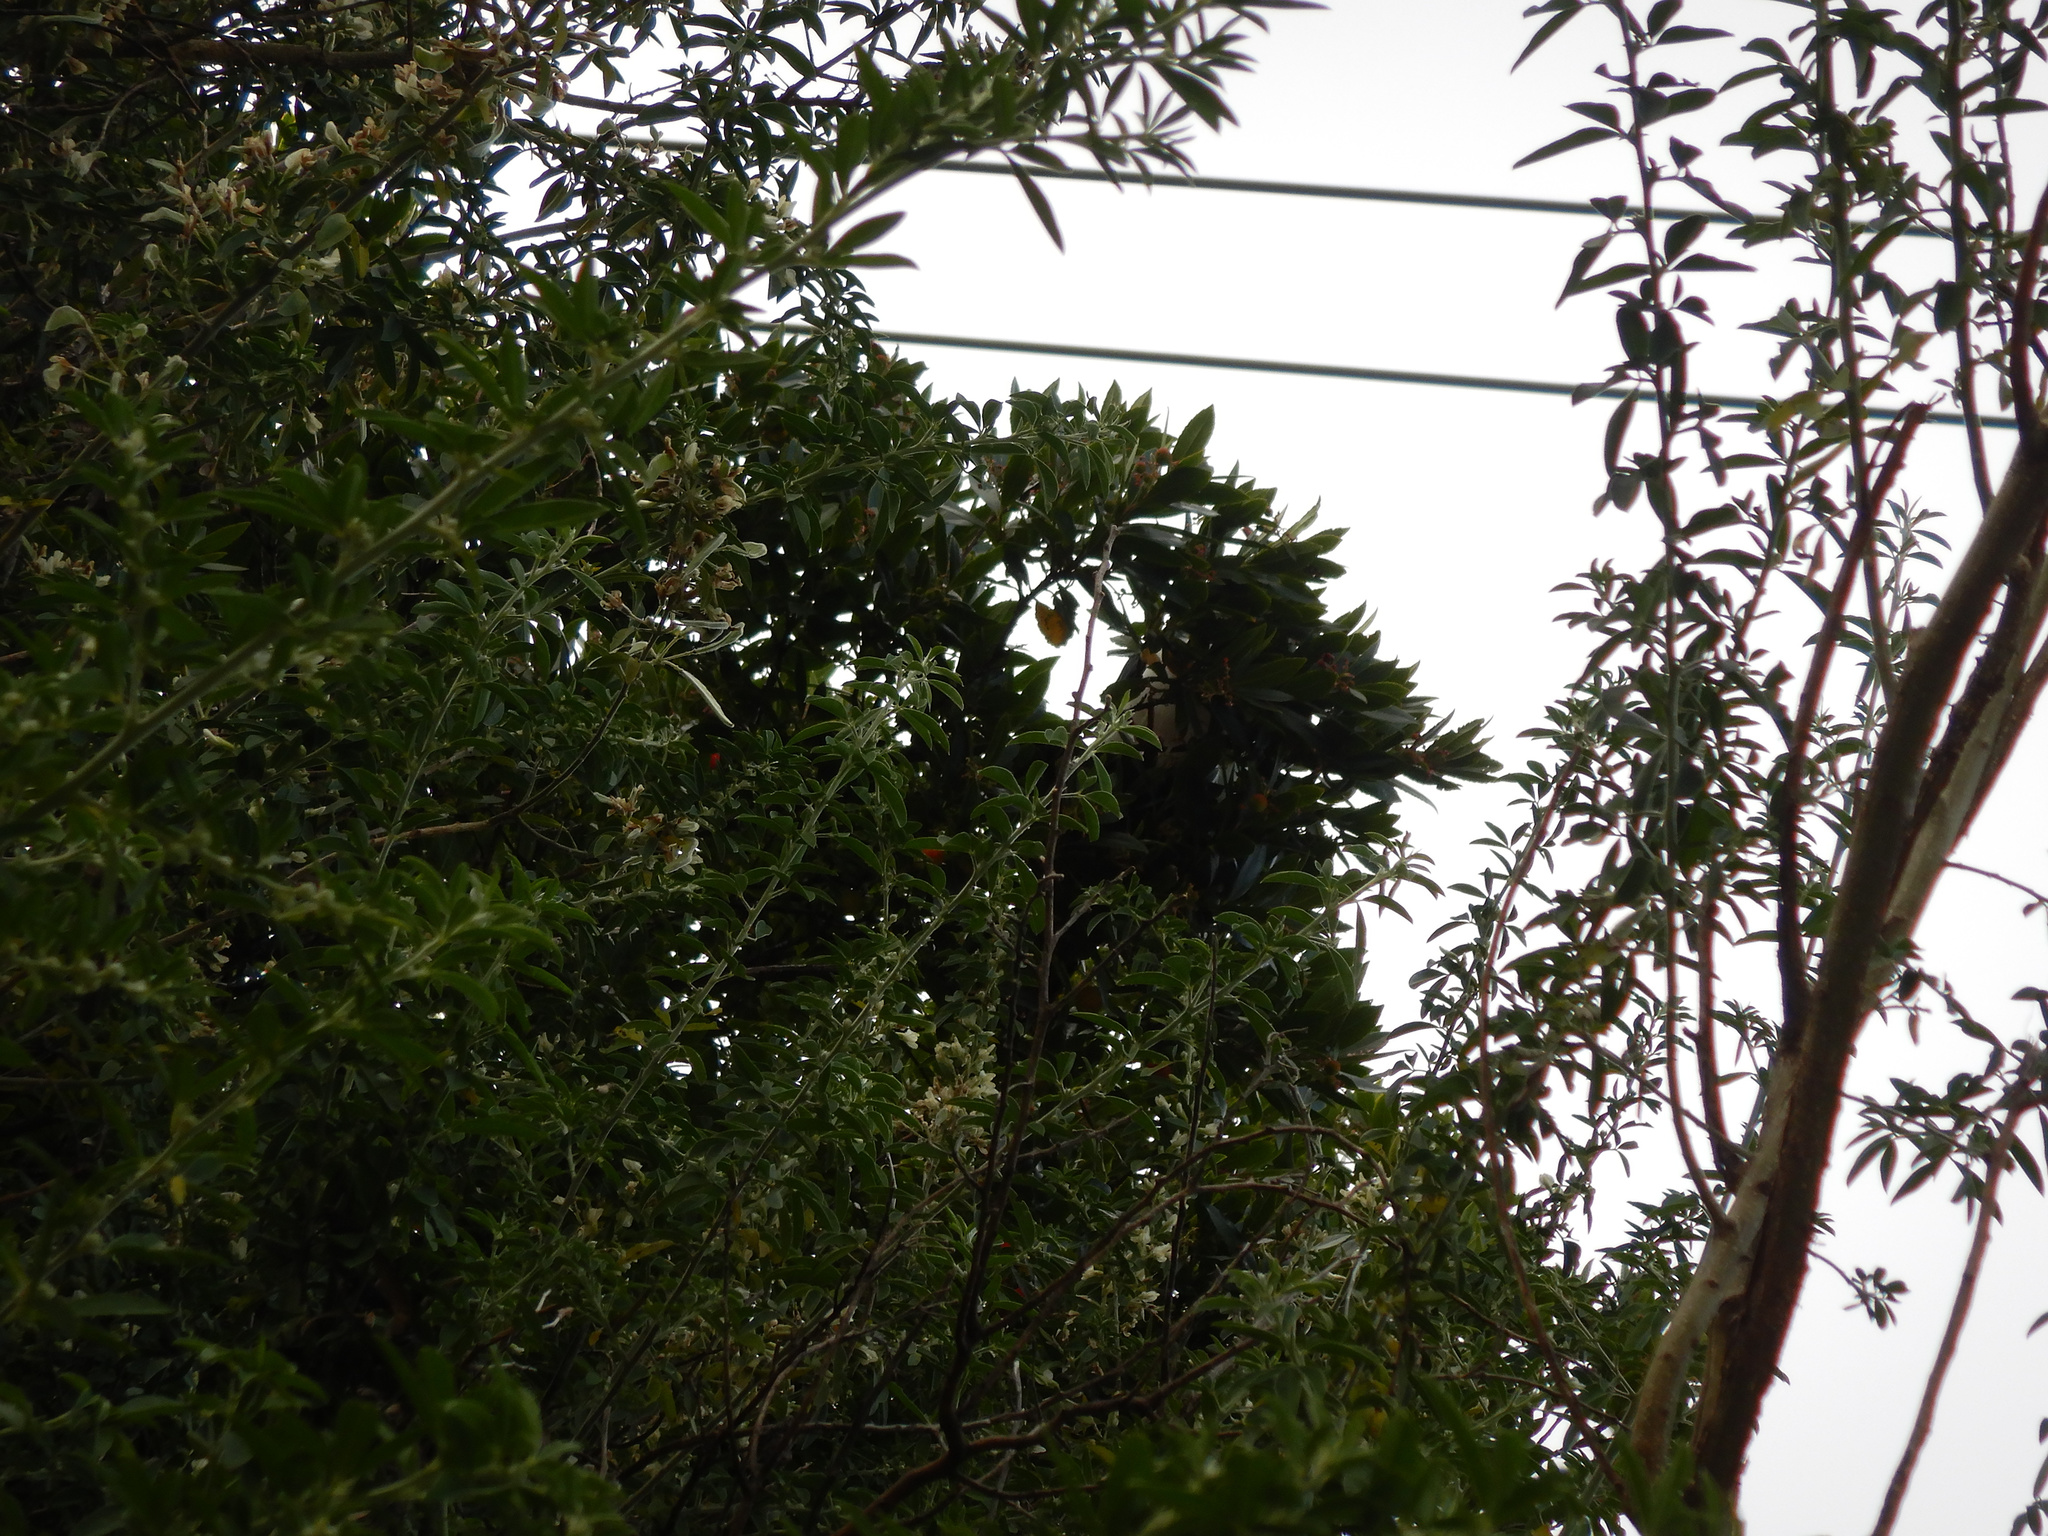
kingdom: Animalia
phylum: Chordata
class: Aves
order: Columbiformes
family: Columbidae
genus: Hemiphaga
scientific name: Hemiphaga novaeseelandiae
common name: New zealand pigeon
